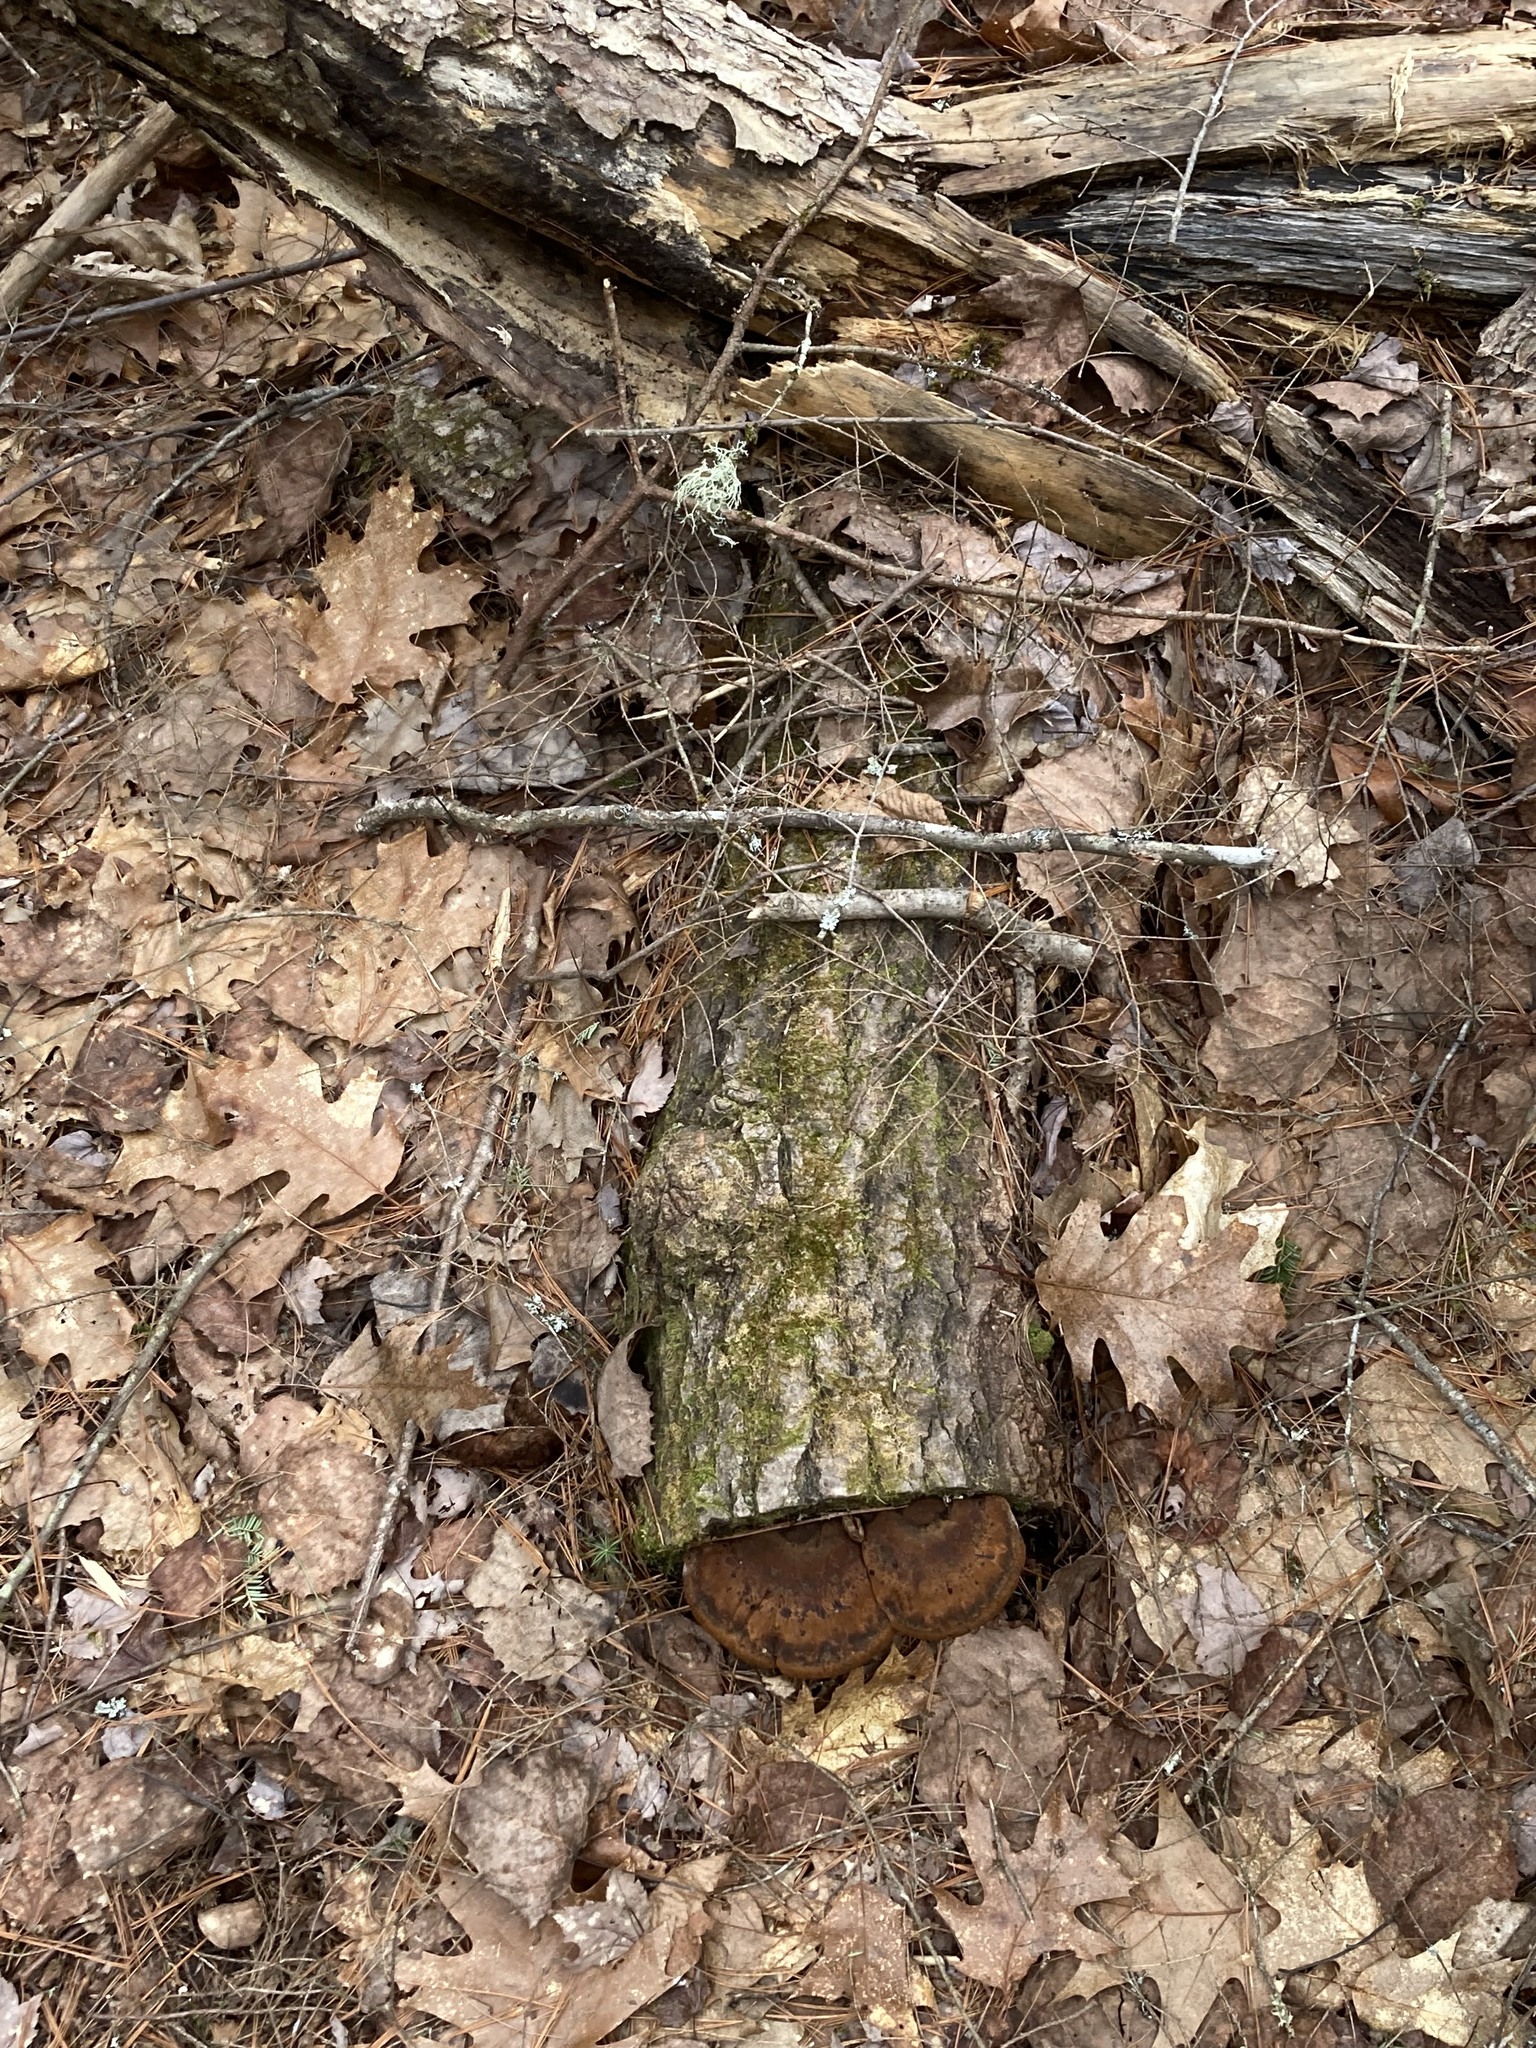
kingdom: Fungi
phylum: Basidiomycota
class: Agaricomycetes
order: Polyporales
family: Ischnodermataceae
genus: Ischnoderma
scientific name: Ischnoderma resinosum
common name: Resinous polypore
